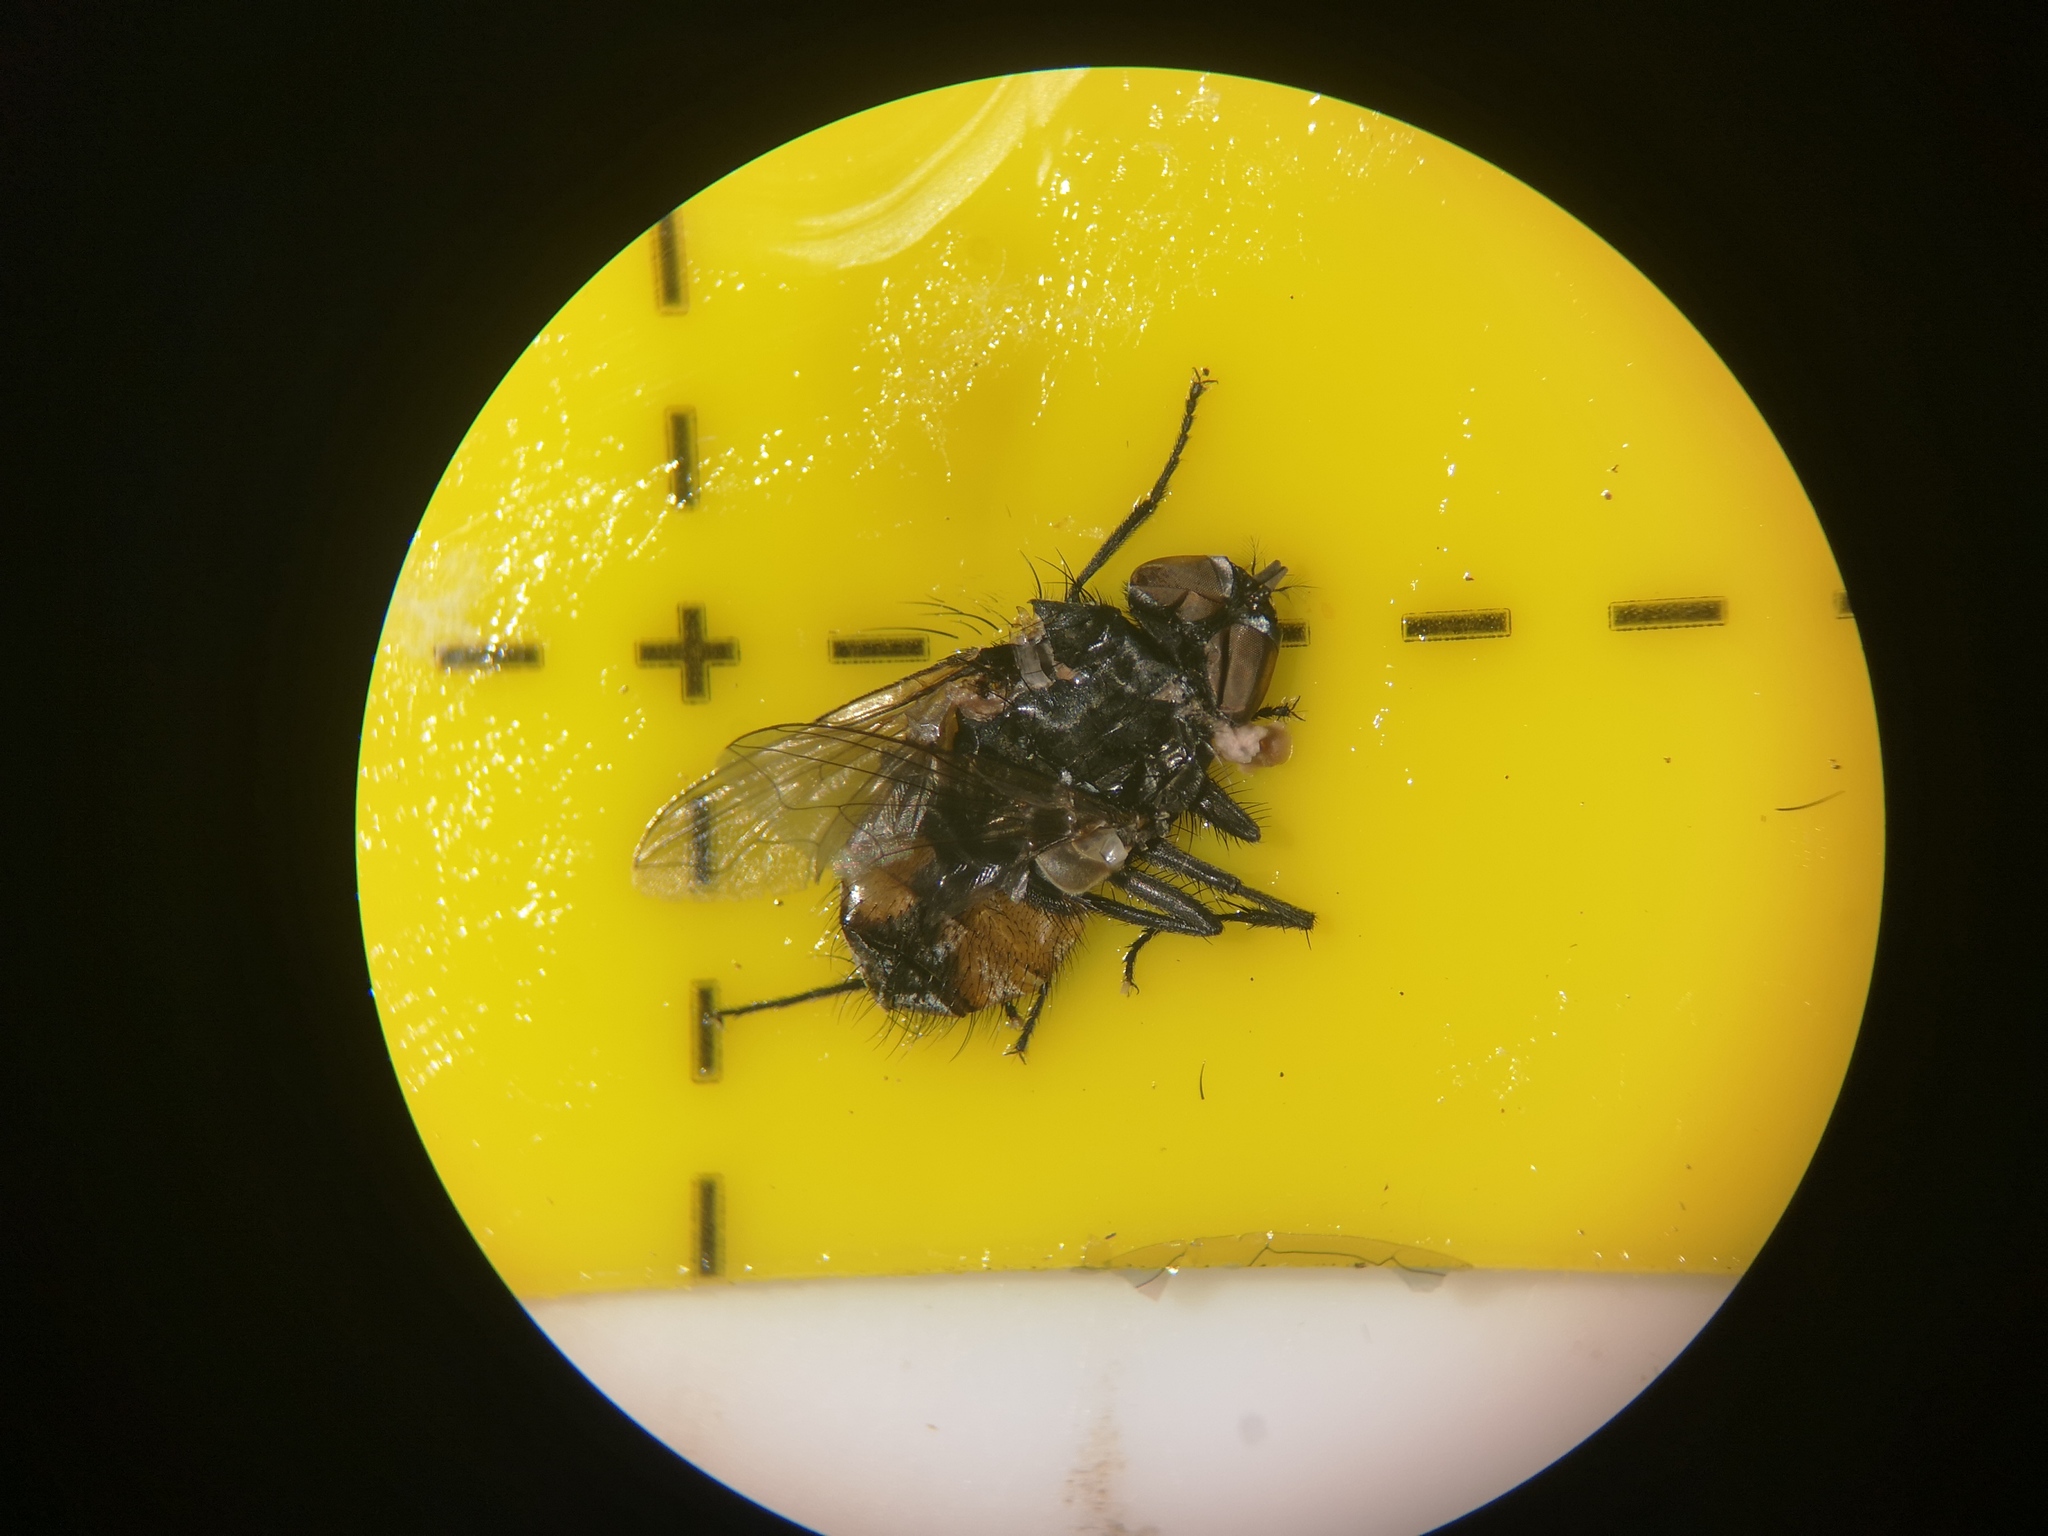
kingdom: Animalia
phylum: Arthropoda
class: Insecta
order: Diptera
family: Muscidae
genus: Musca
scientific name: Musca autumnalis
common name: Face fly
